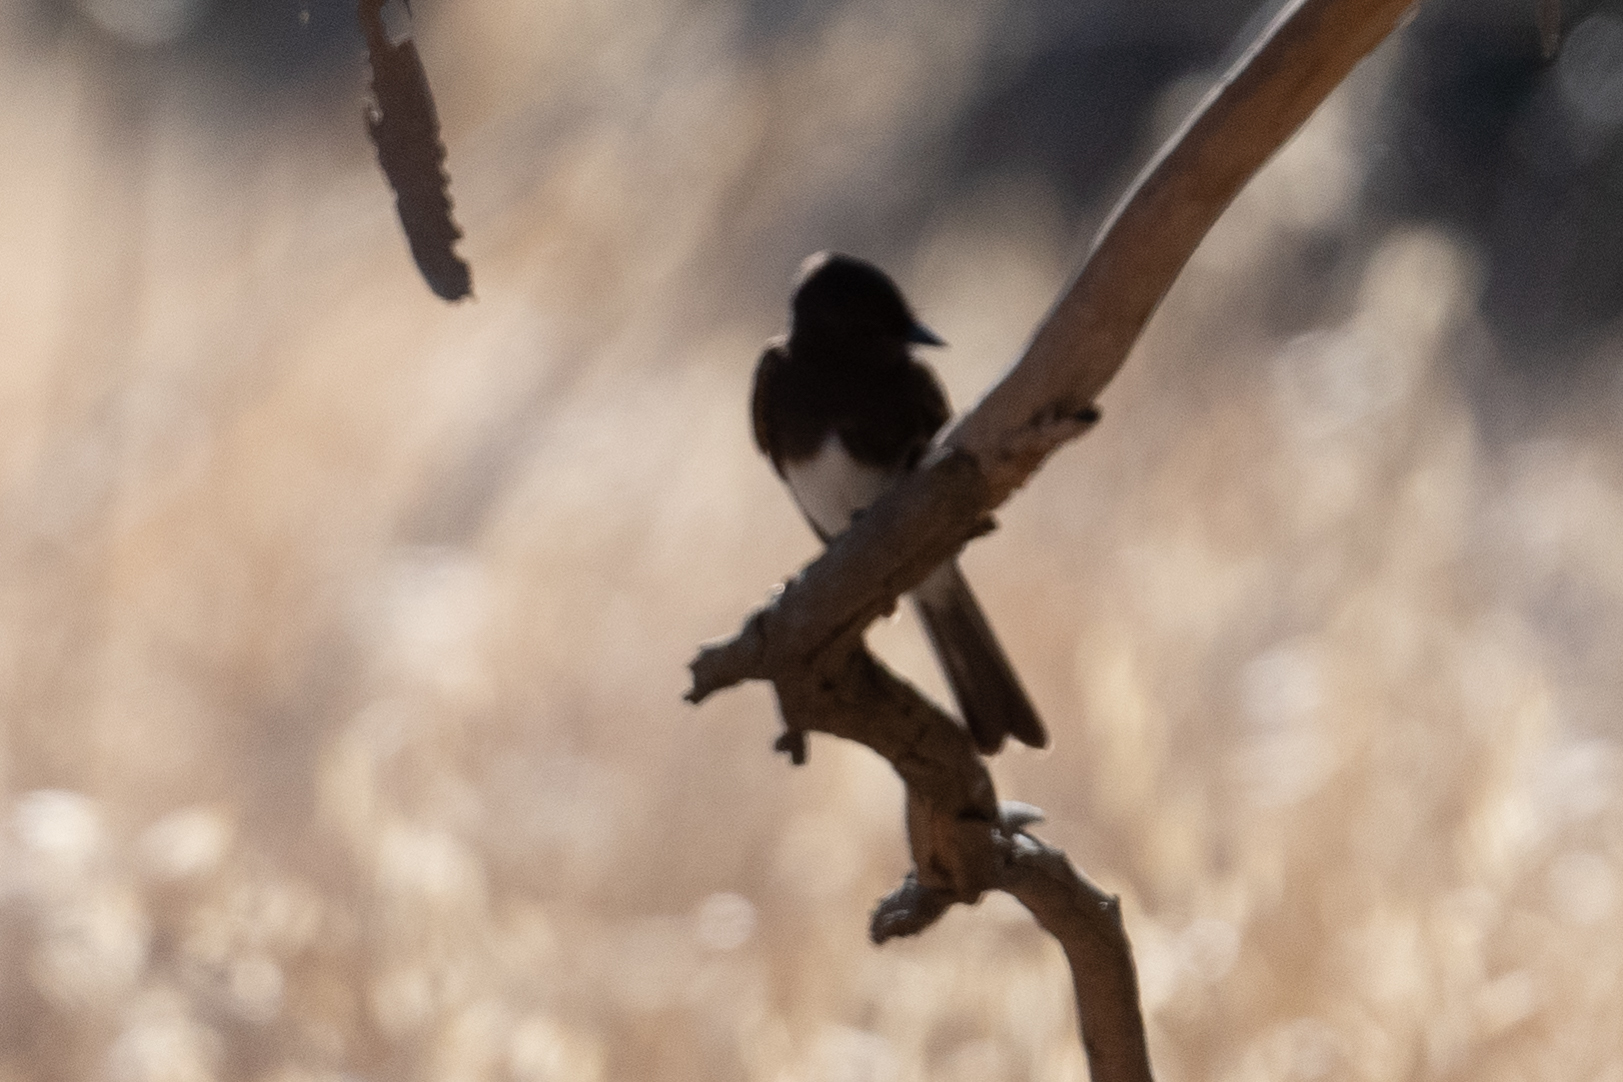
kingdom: Animalia
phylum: Chordata
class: Aves
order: Passeriformes
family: Tyrannidae
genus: Sayornis
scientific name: Sayornis nigricans
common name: Black phoebe
